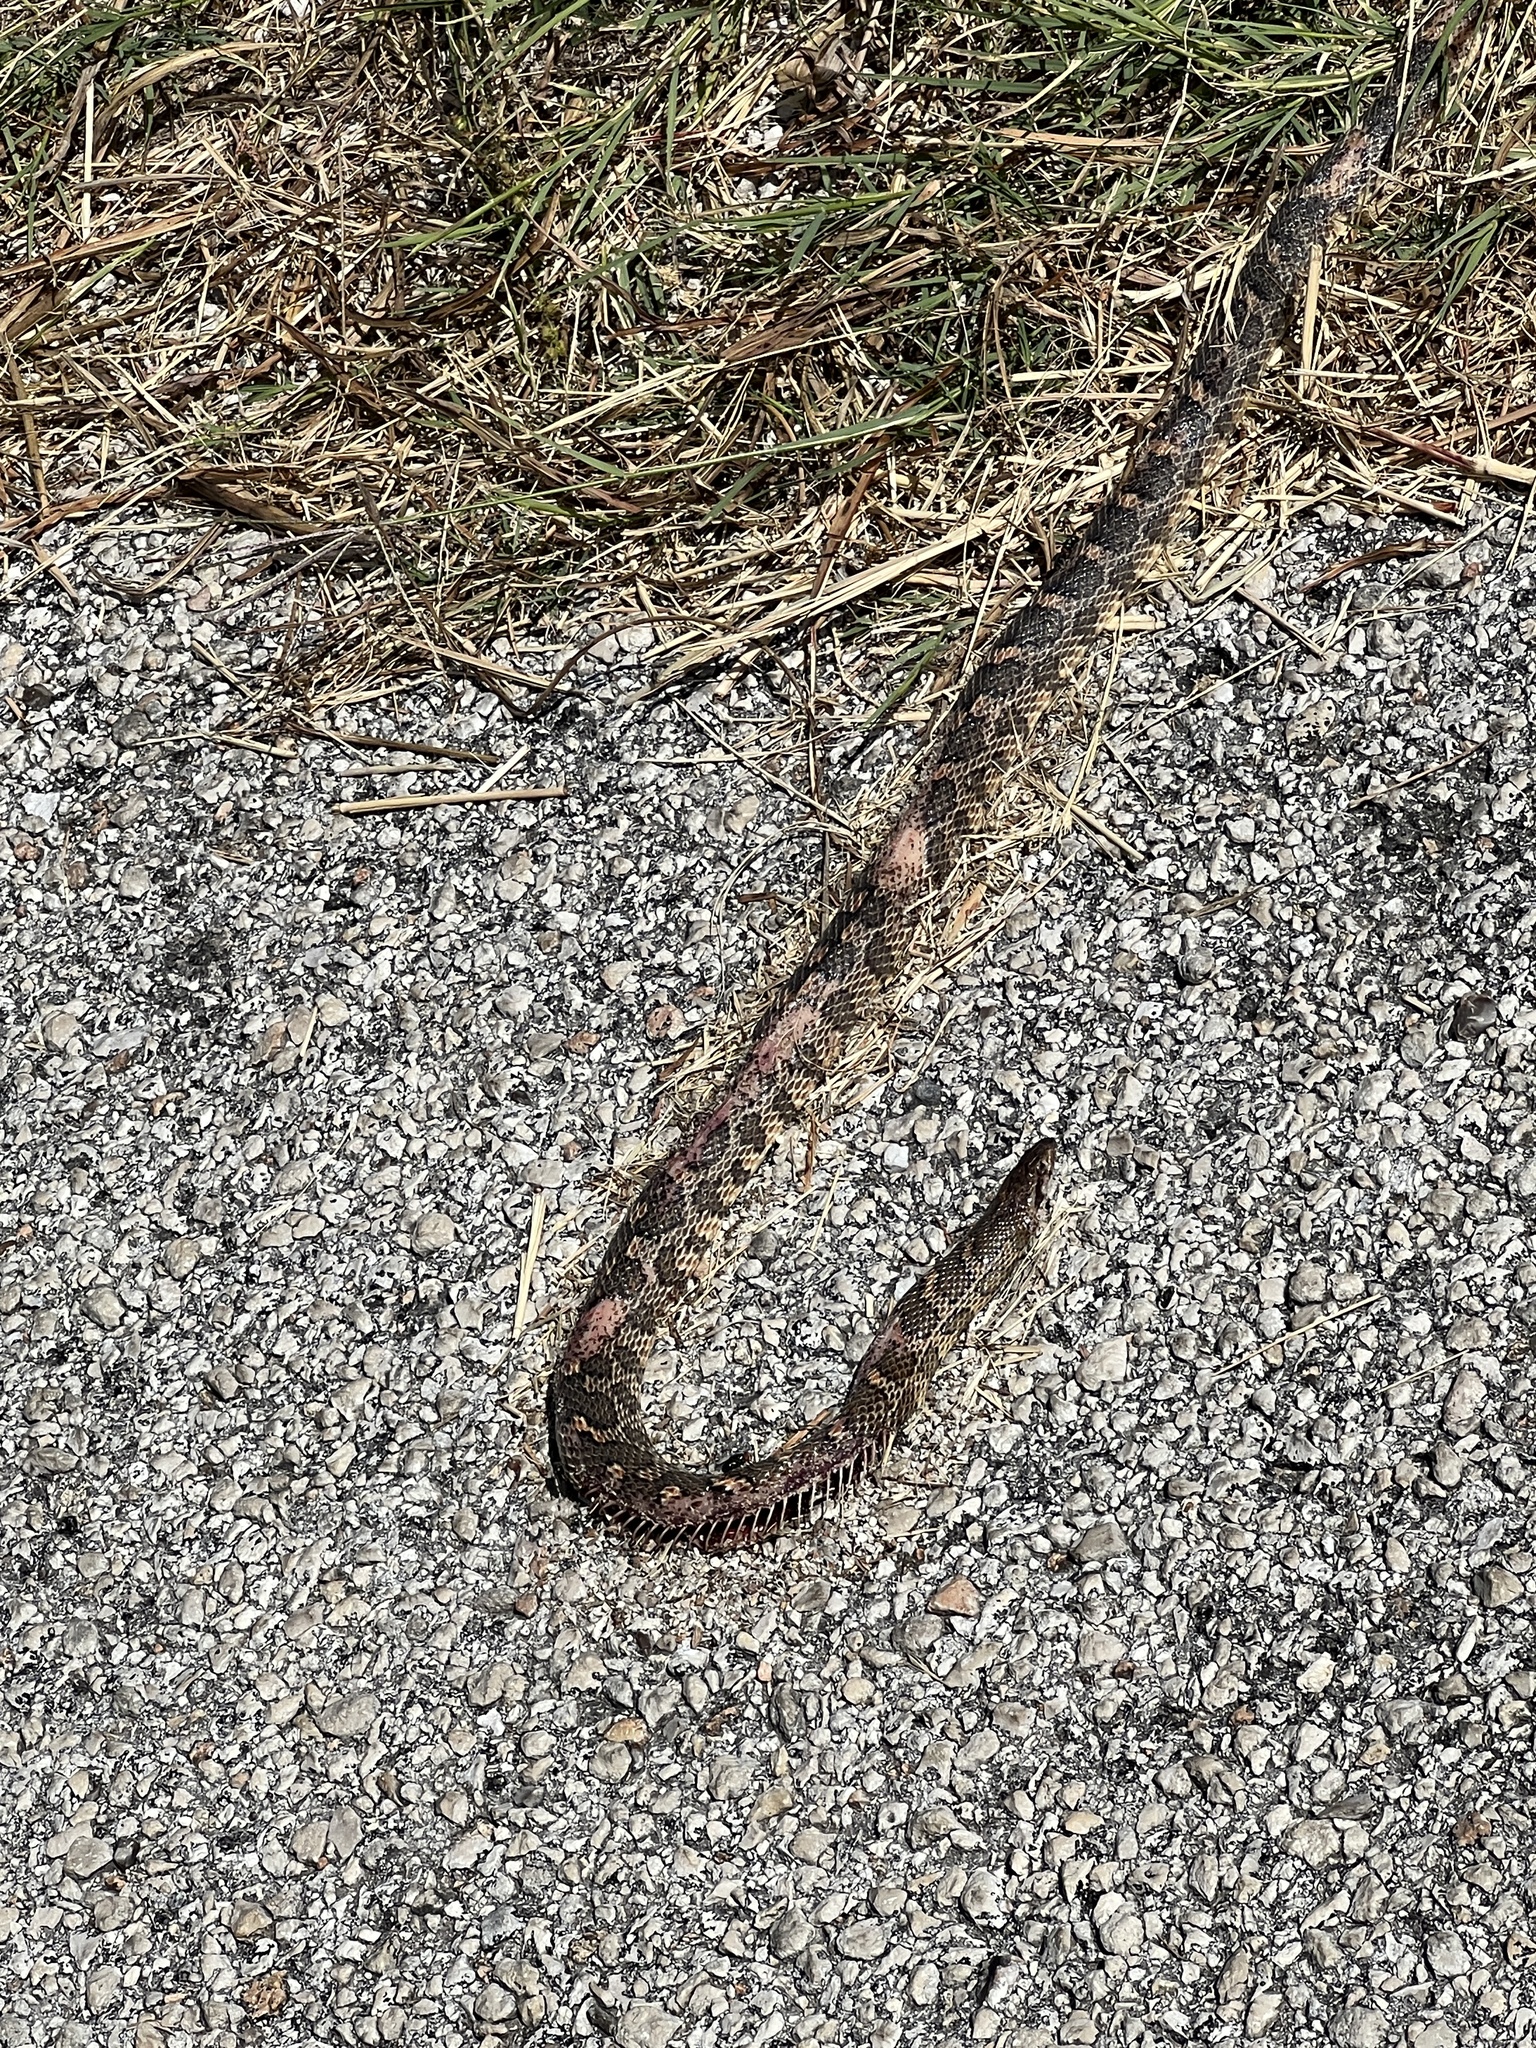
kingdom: Animalia
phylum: Chordata
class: Squamata
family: Colubridae
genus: Arizona
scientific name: Arizona elegans
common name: Glossy snake
